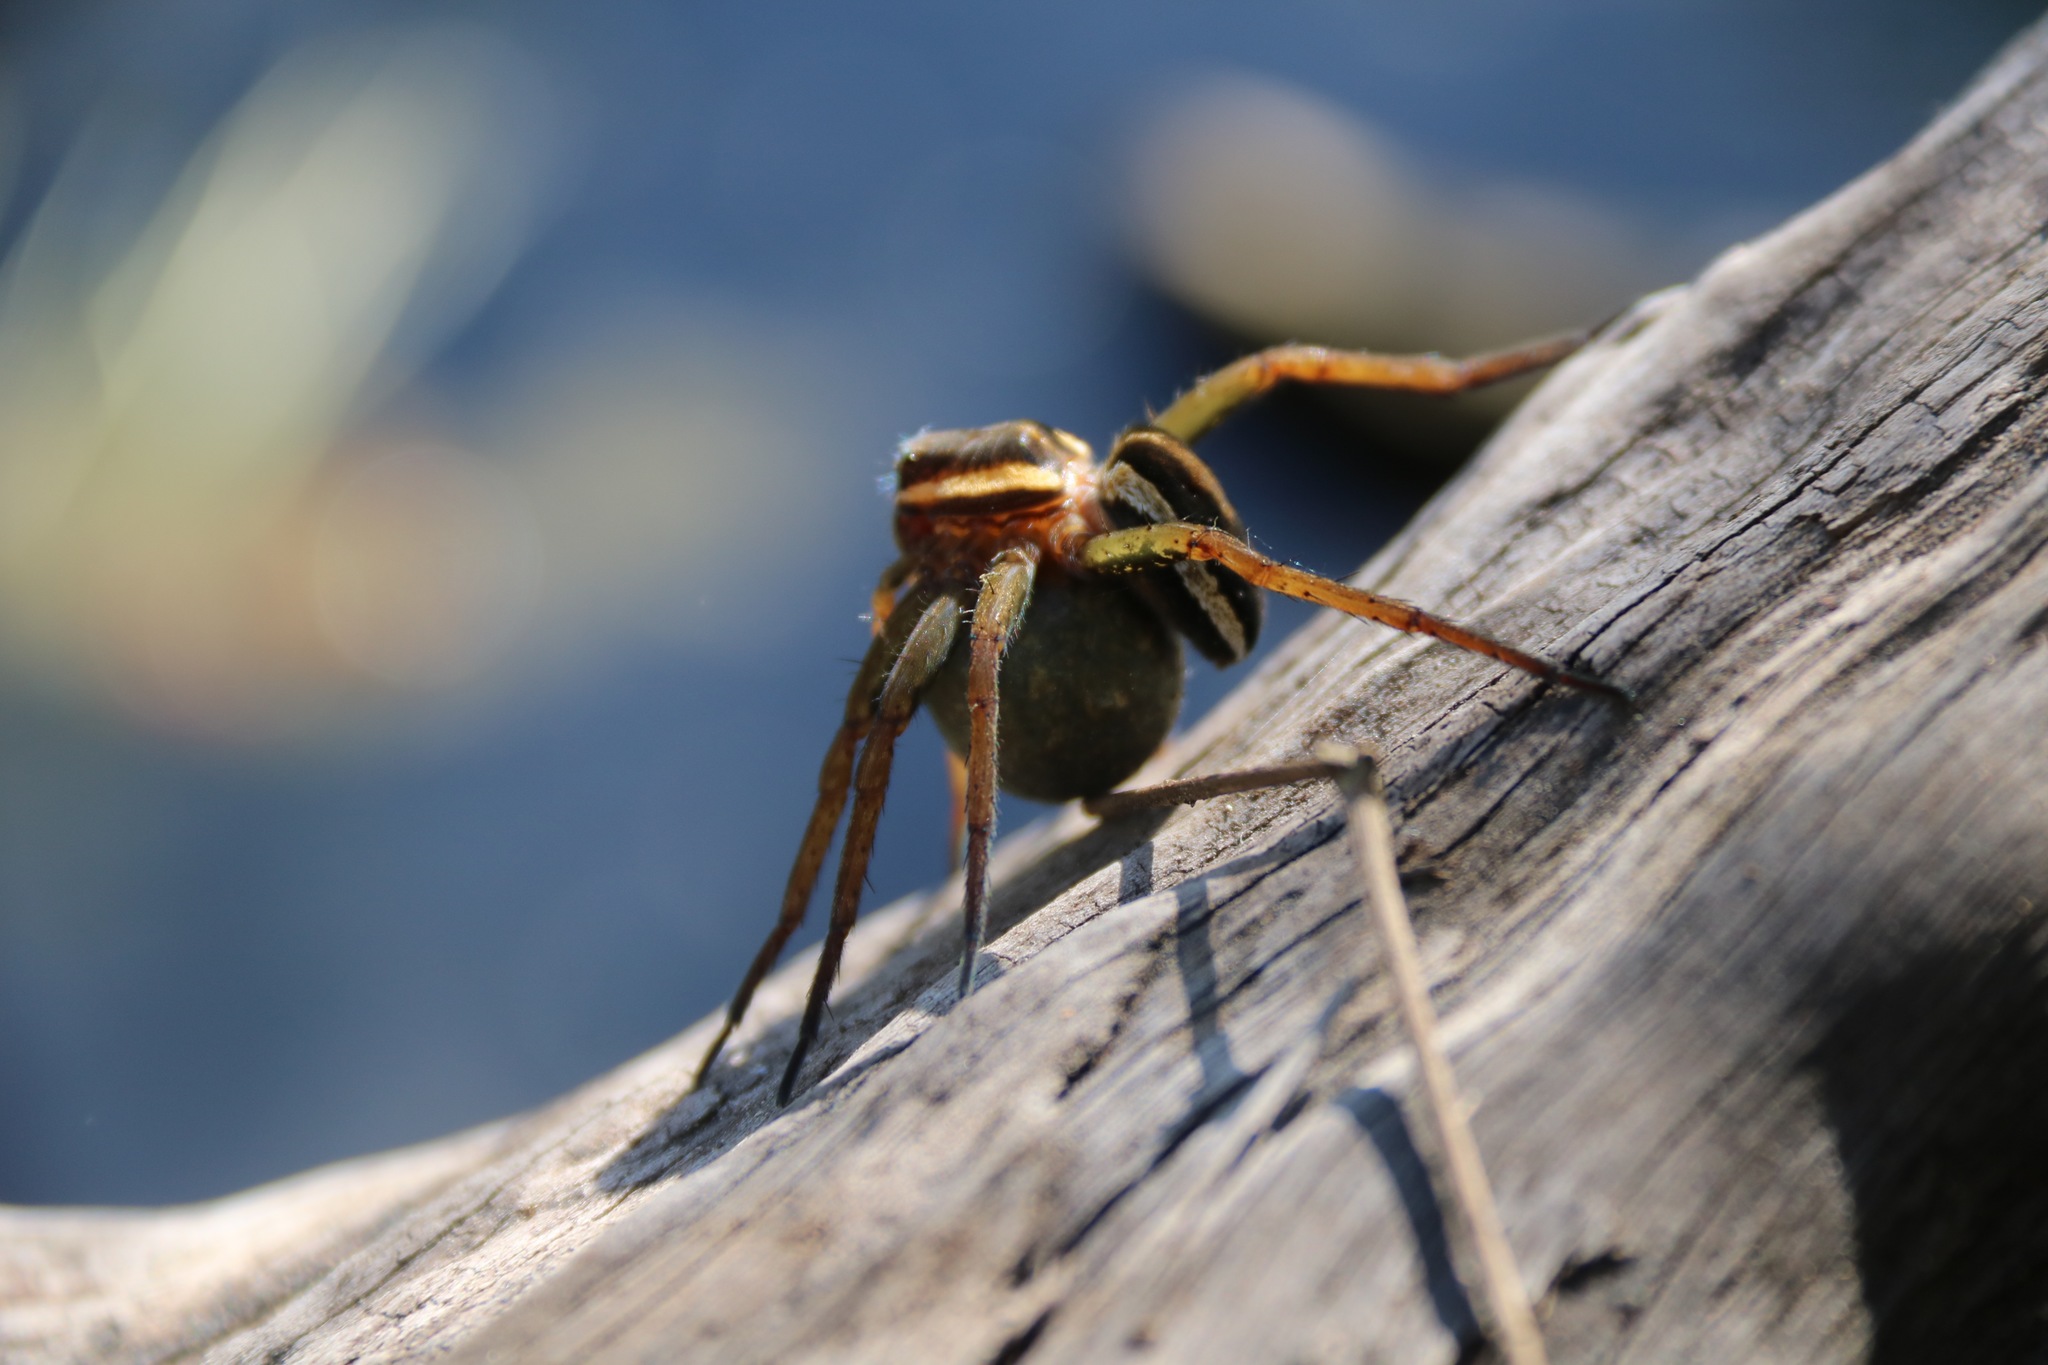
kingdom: Animalia
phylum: Arthropoda
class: Arachnida
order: Araneae
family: Pisauridae
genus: Dolomedes
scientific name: Dolomedes fimbriatus
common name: Raft spider
